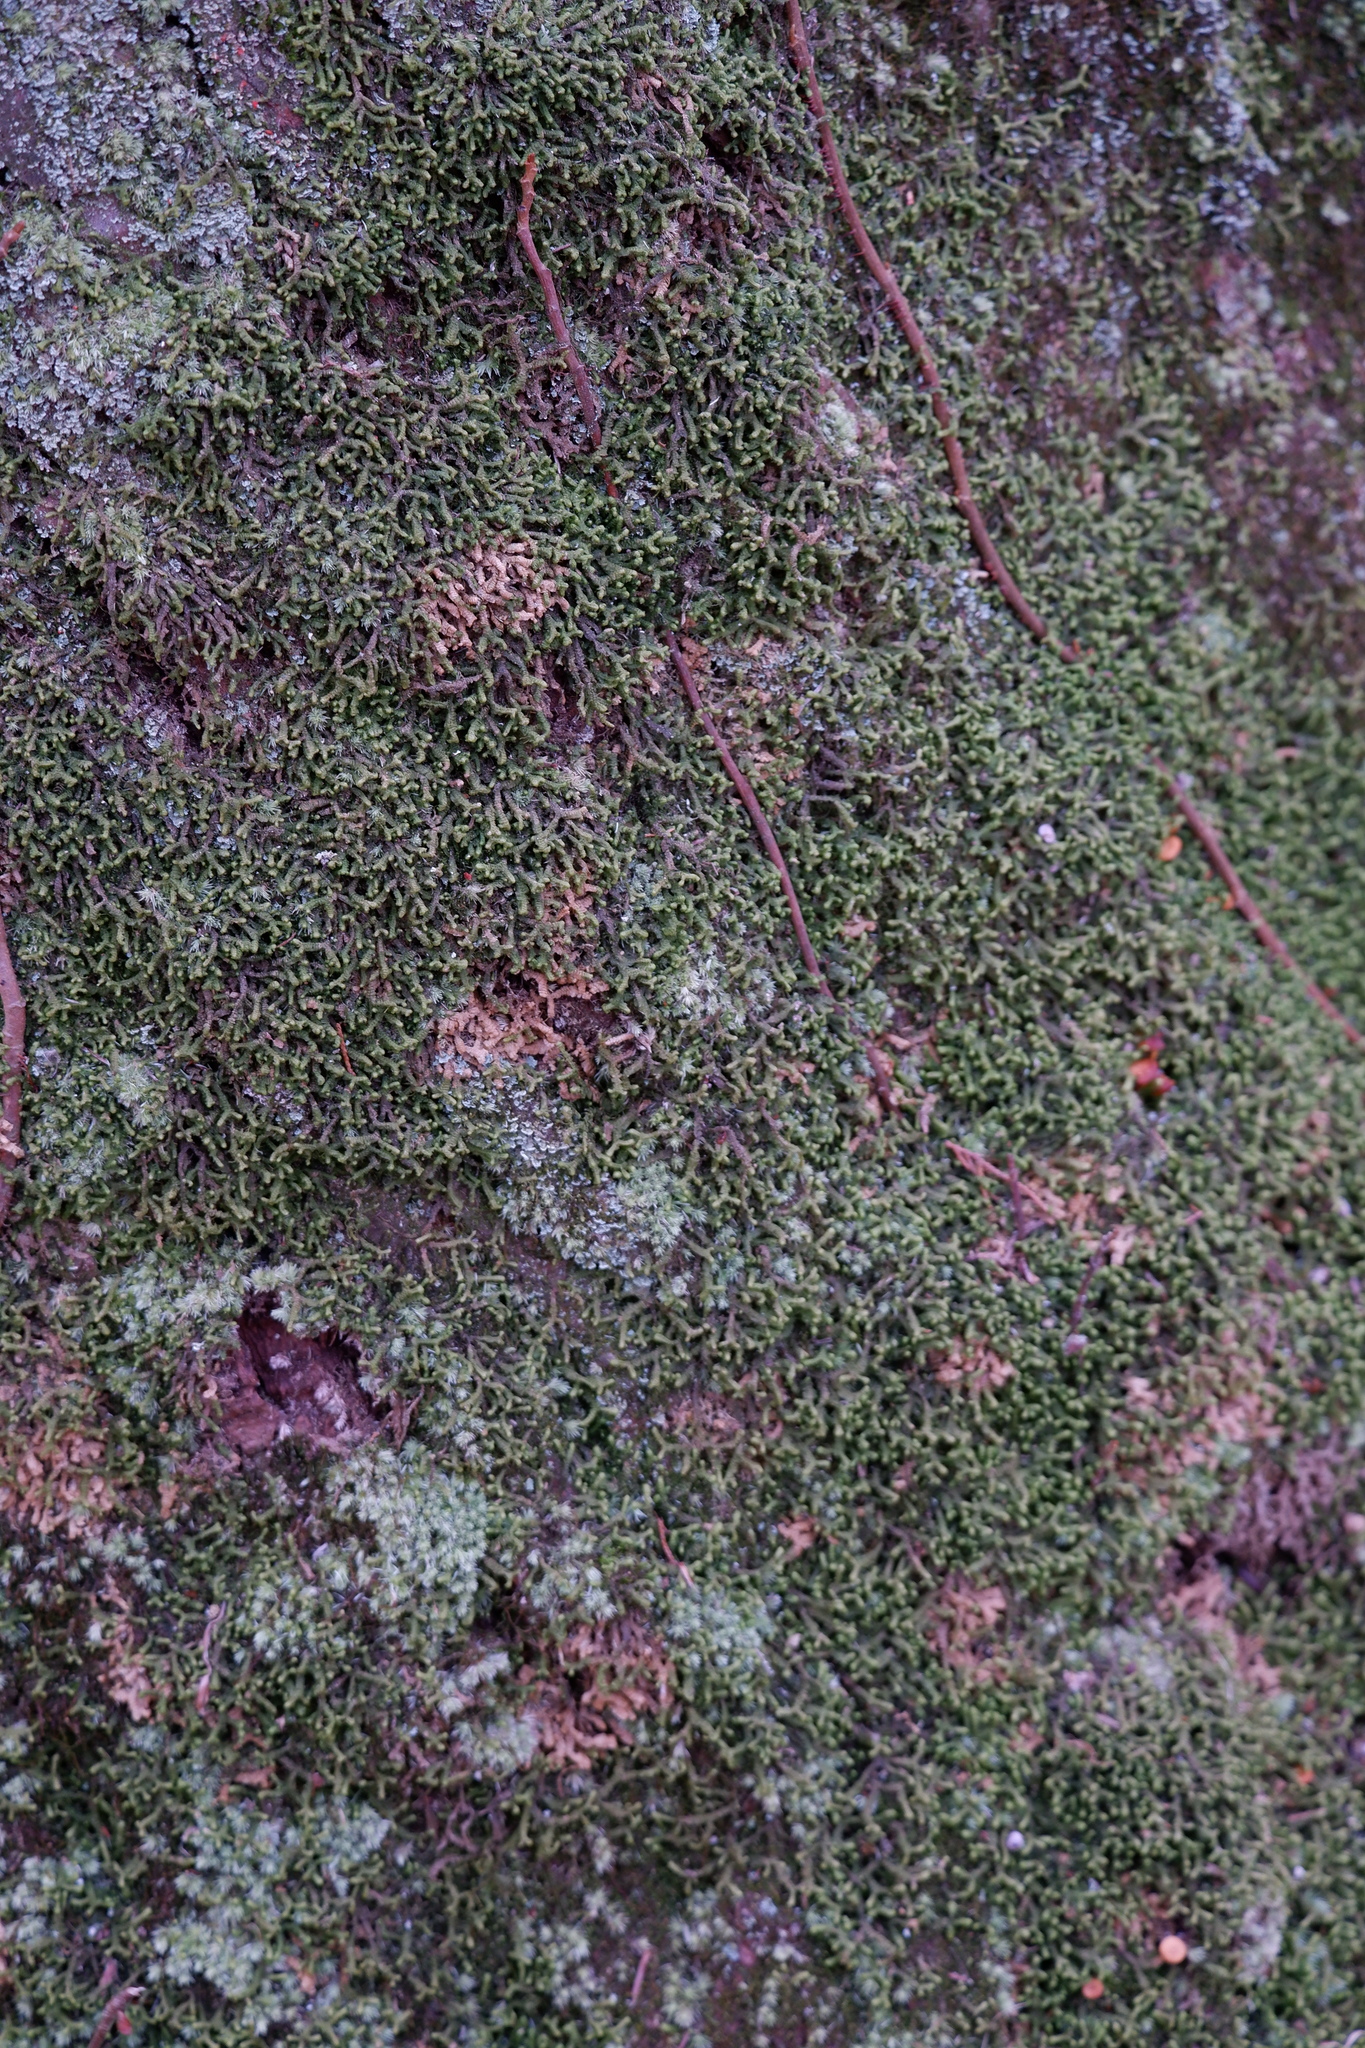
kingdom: Plantae
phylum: Marchantiophyta
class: Jungermanniopsida
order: Jungermanniales
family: Lepidoziaceae
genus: Bazzania
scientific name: Bazzania trilobata
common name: Three-lobed whipwort
